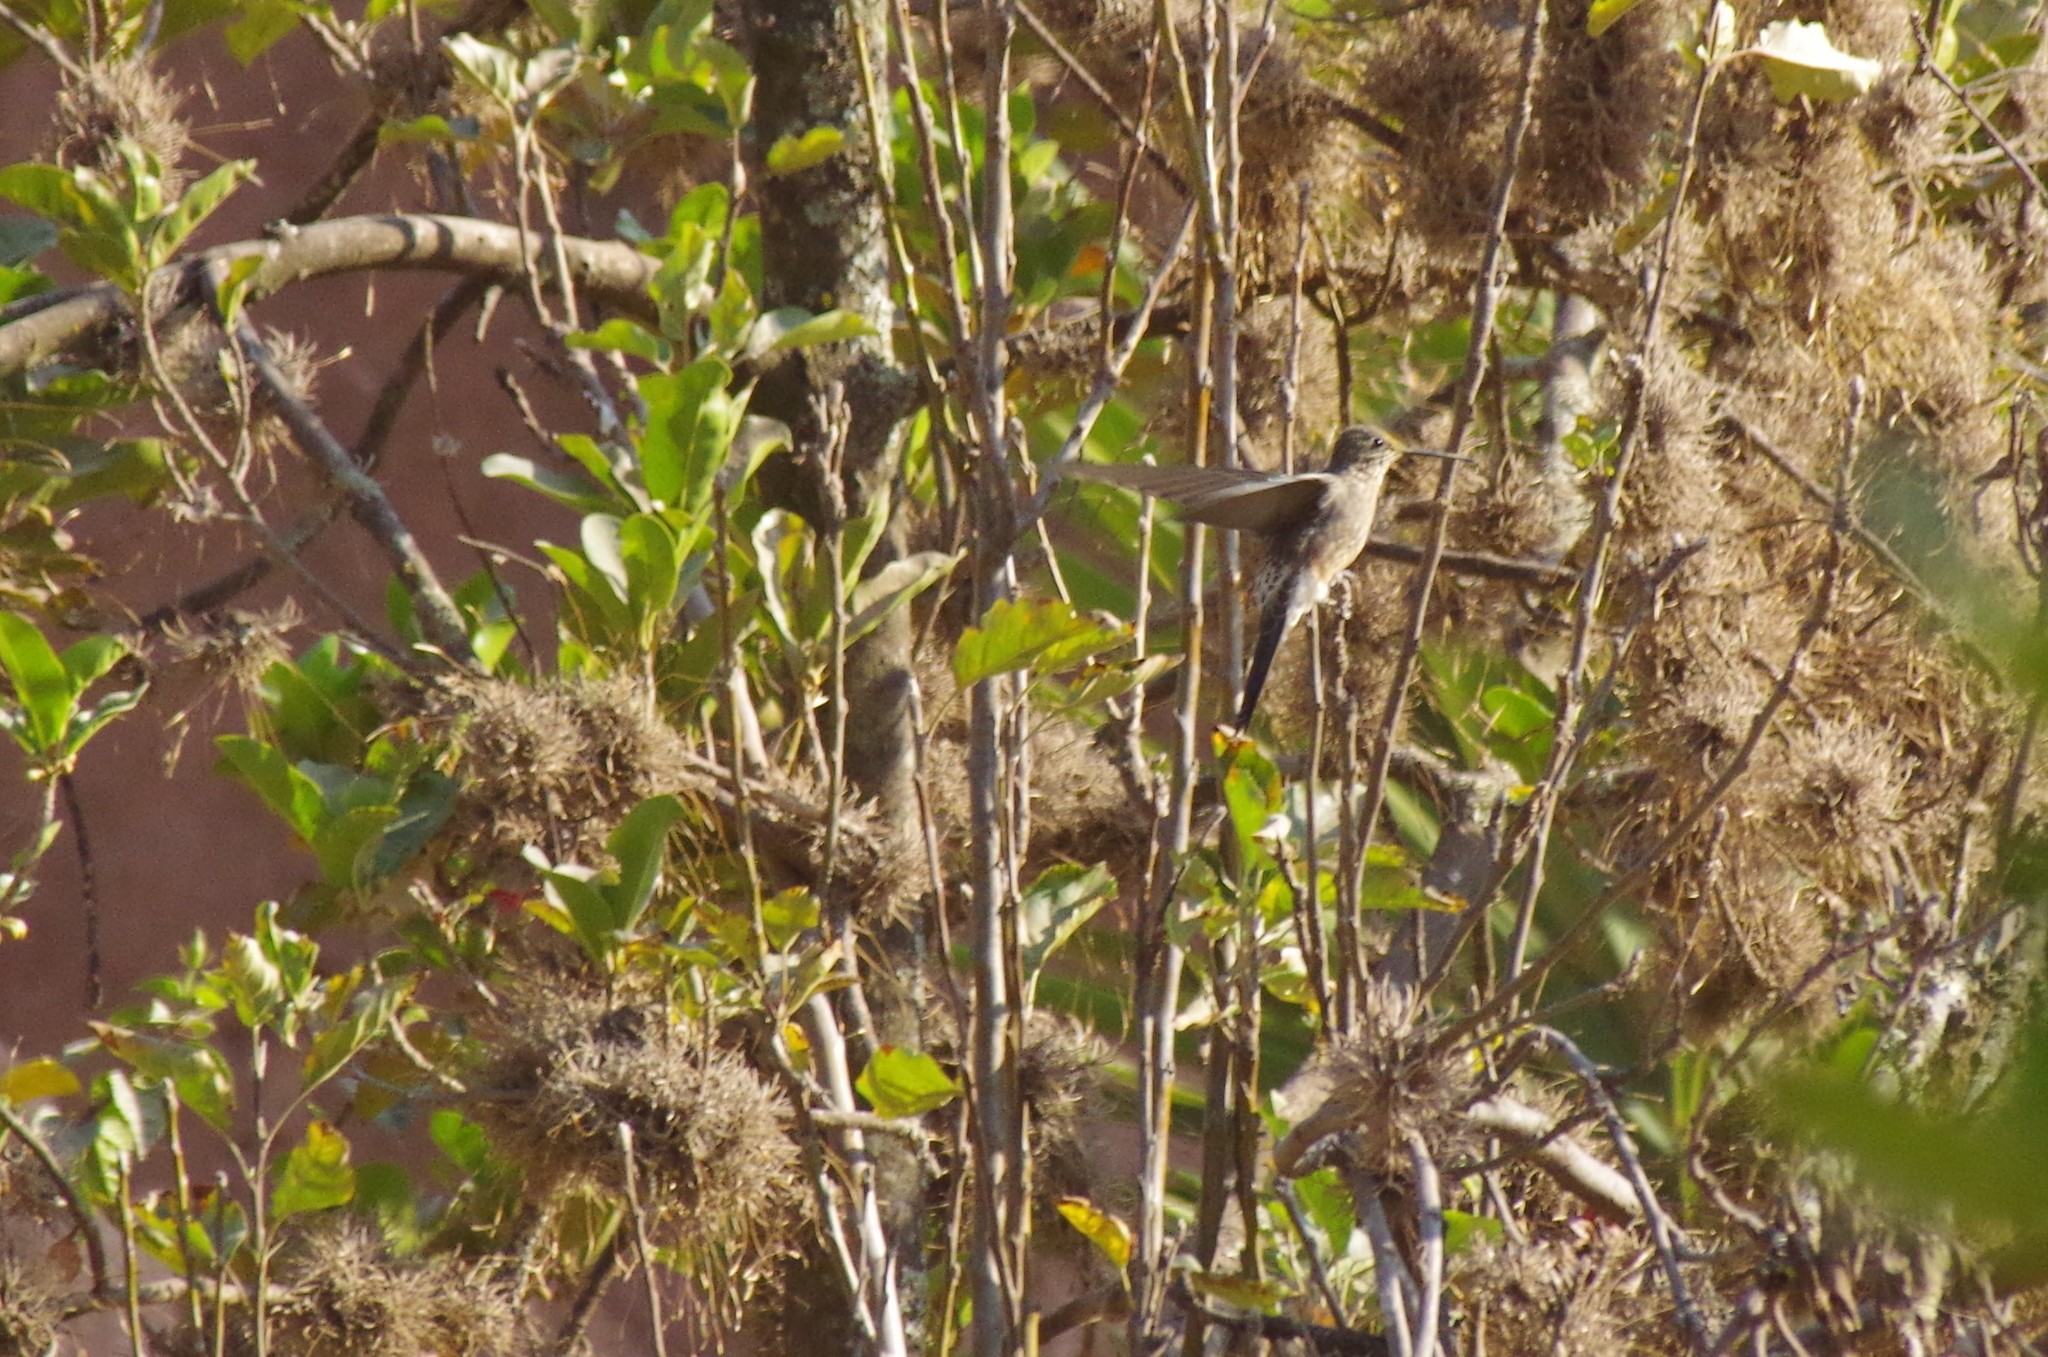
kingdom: Animalia
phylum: Chordata
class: Aves
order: Apodiformes
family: Trochilidae
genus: Patagona
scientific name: Patagona gigas
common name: Giant hummingbird
